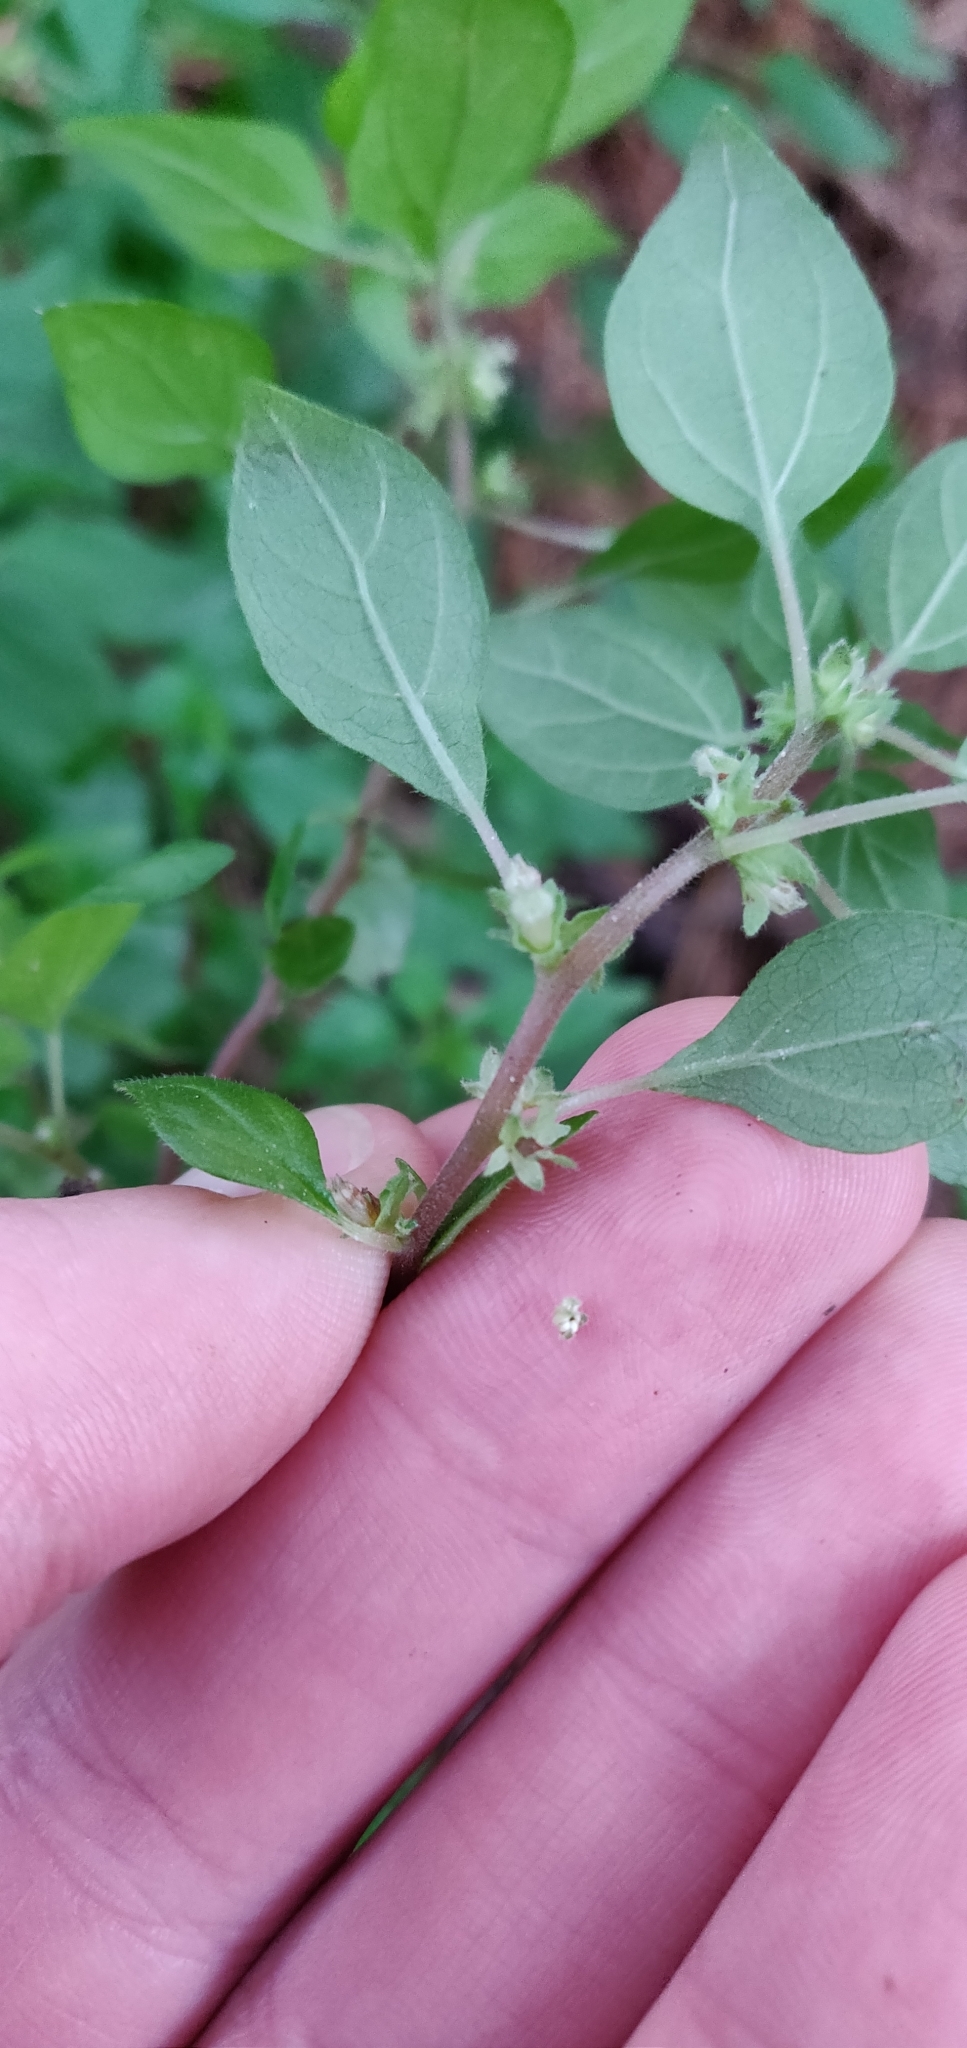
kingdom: Plantae
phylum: Tracheophyta
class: Magnoliopsida
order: Rosales
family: Urticaceae
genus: Parietaria
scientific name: Parietaria judaica
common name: Pellitory-of-the-wall
